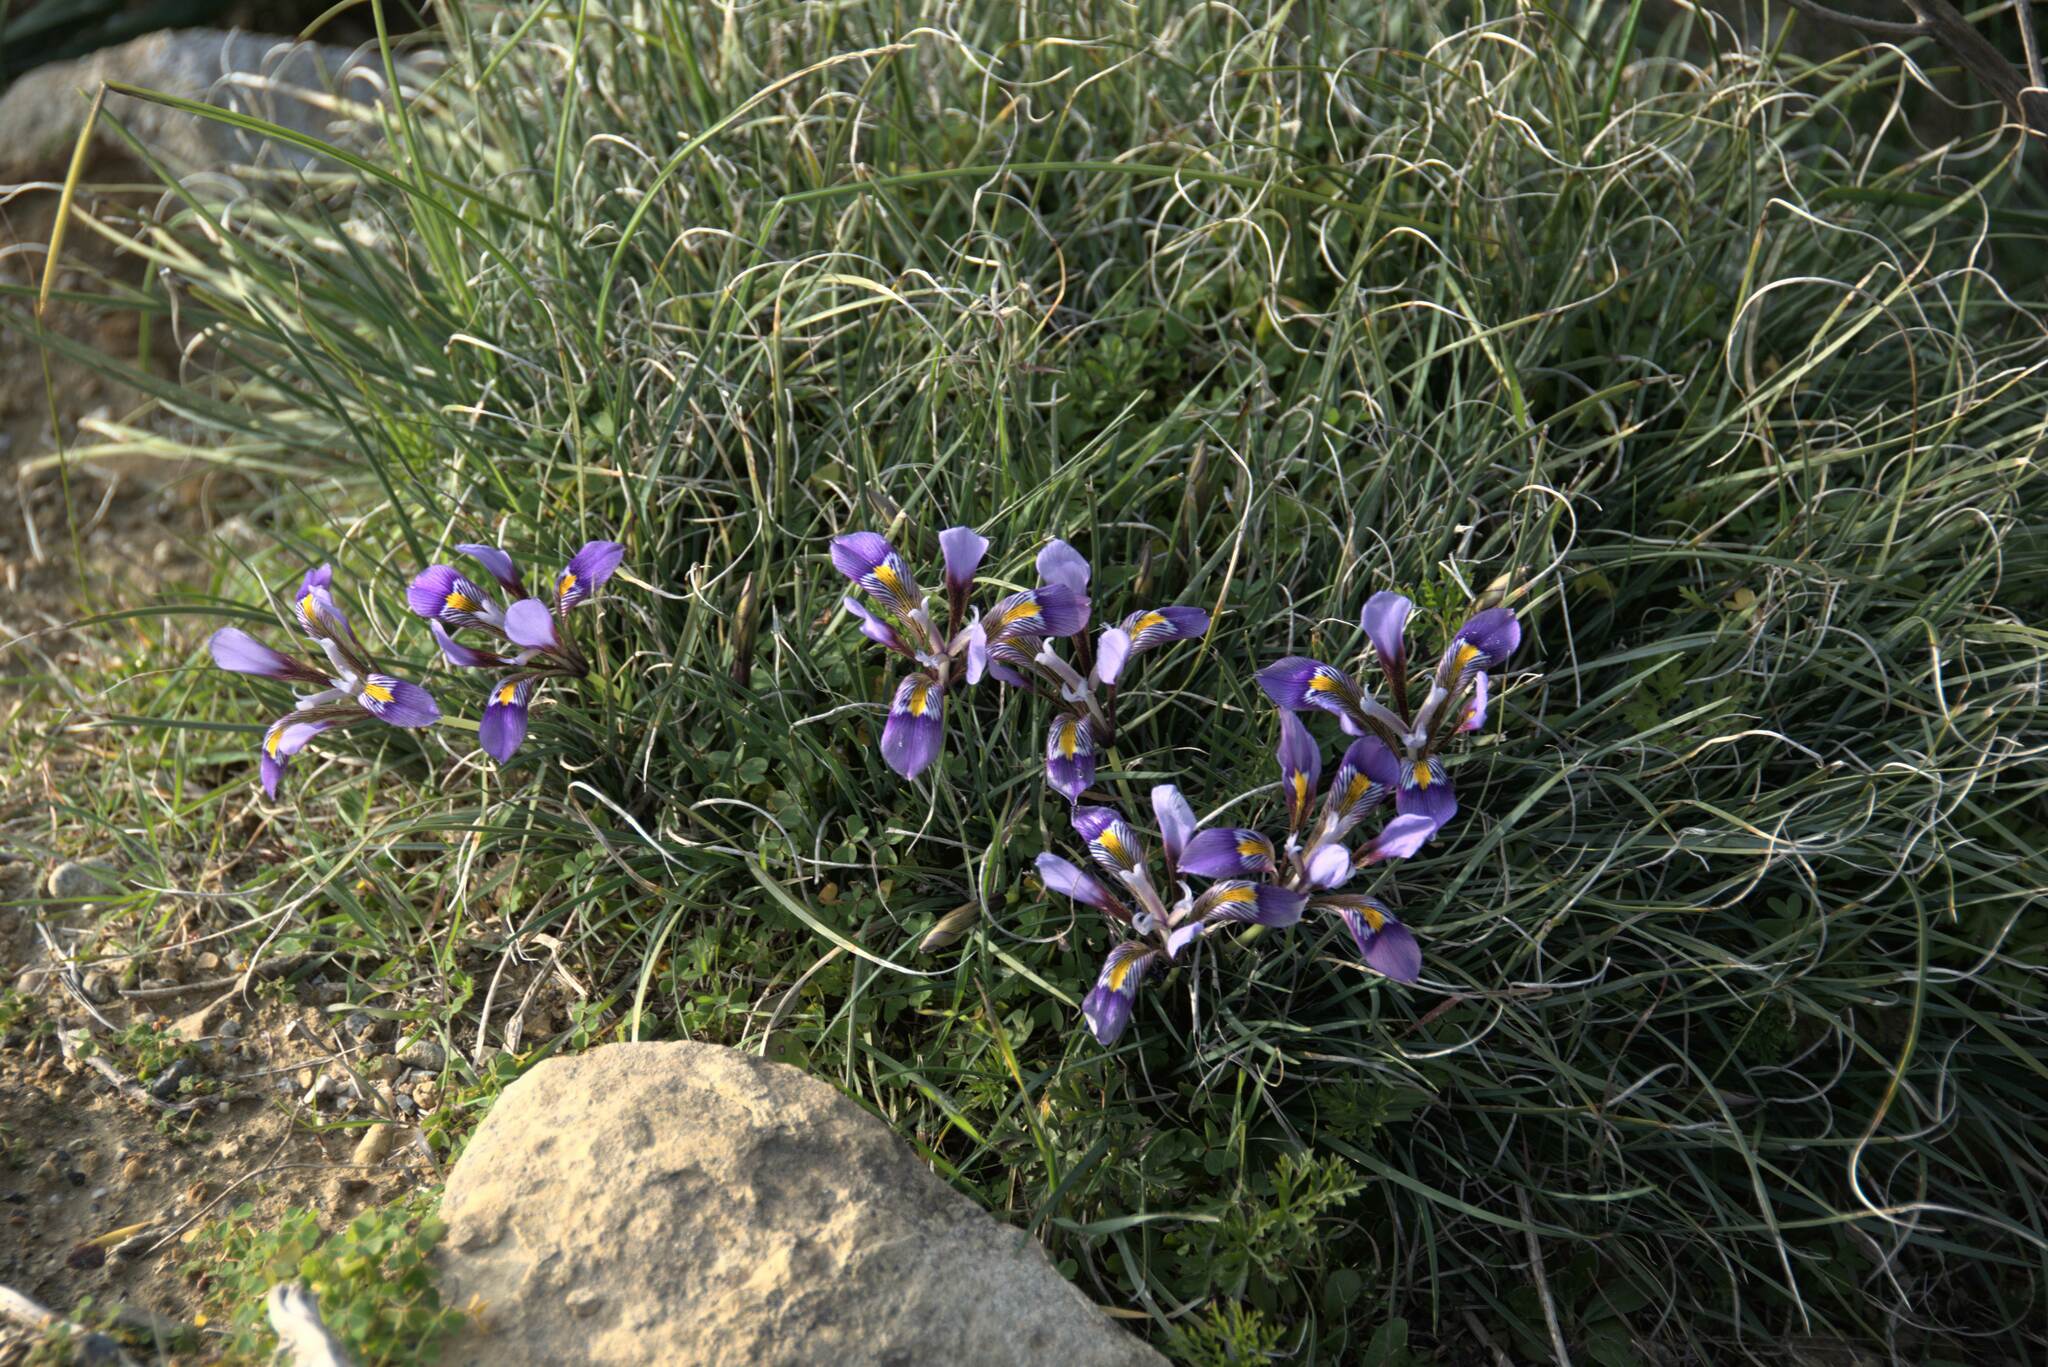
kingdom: Plantae
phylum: Tracheophyta
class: Liliopsida
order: Asparagales
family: Iridaceae
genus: Iris
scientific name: Iris unguicularis
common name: Algerian iris
